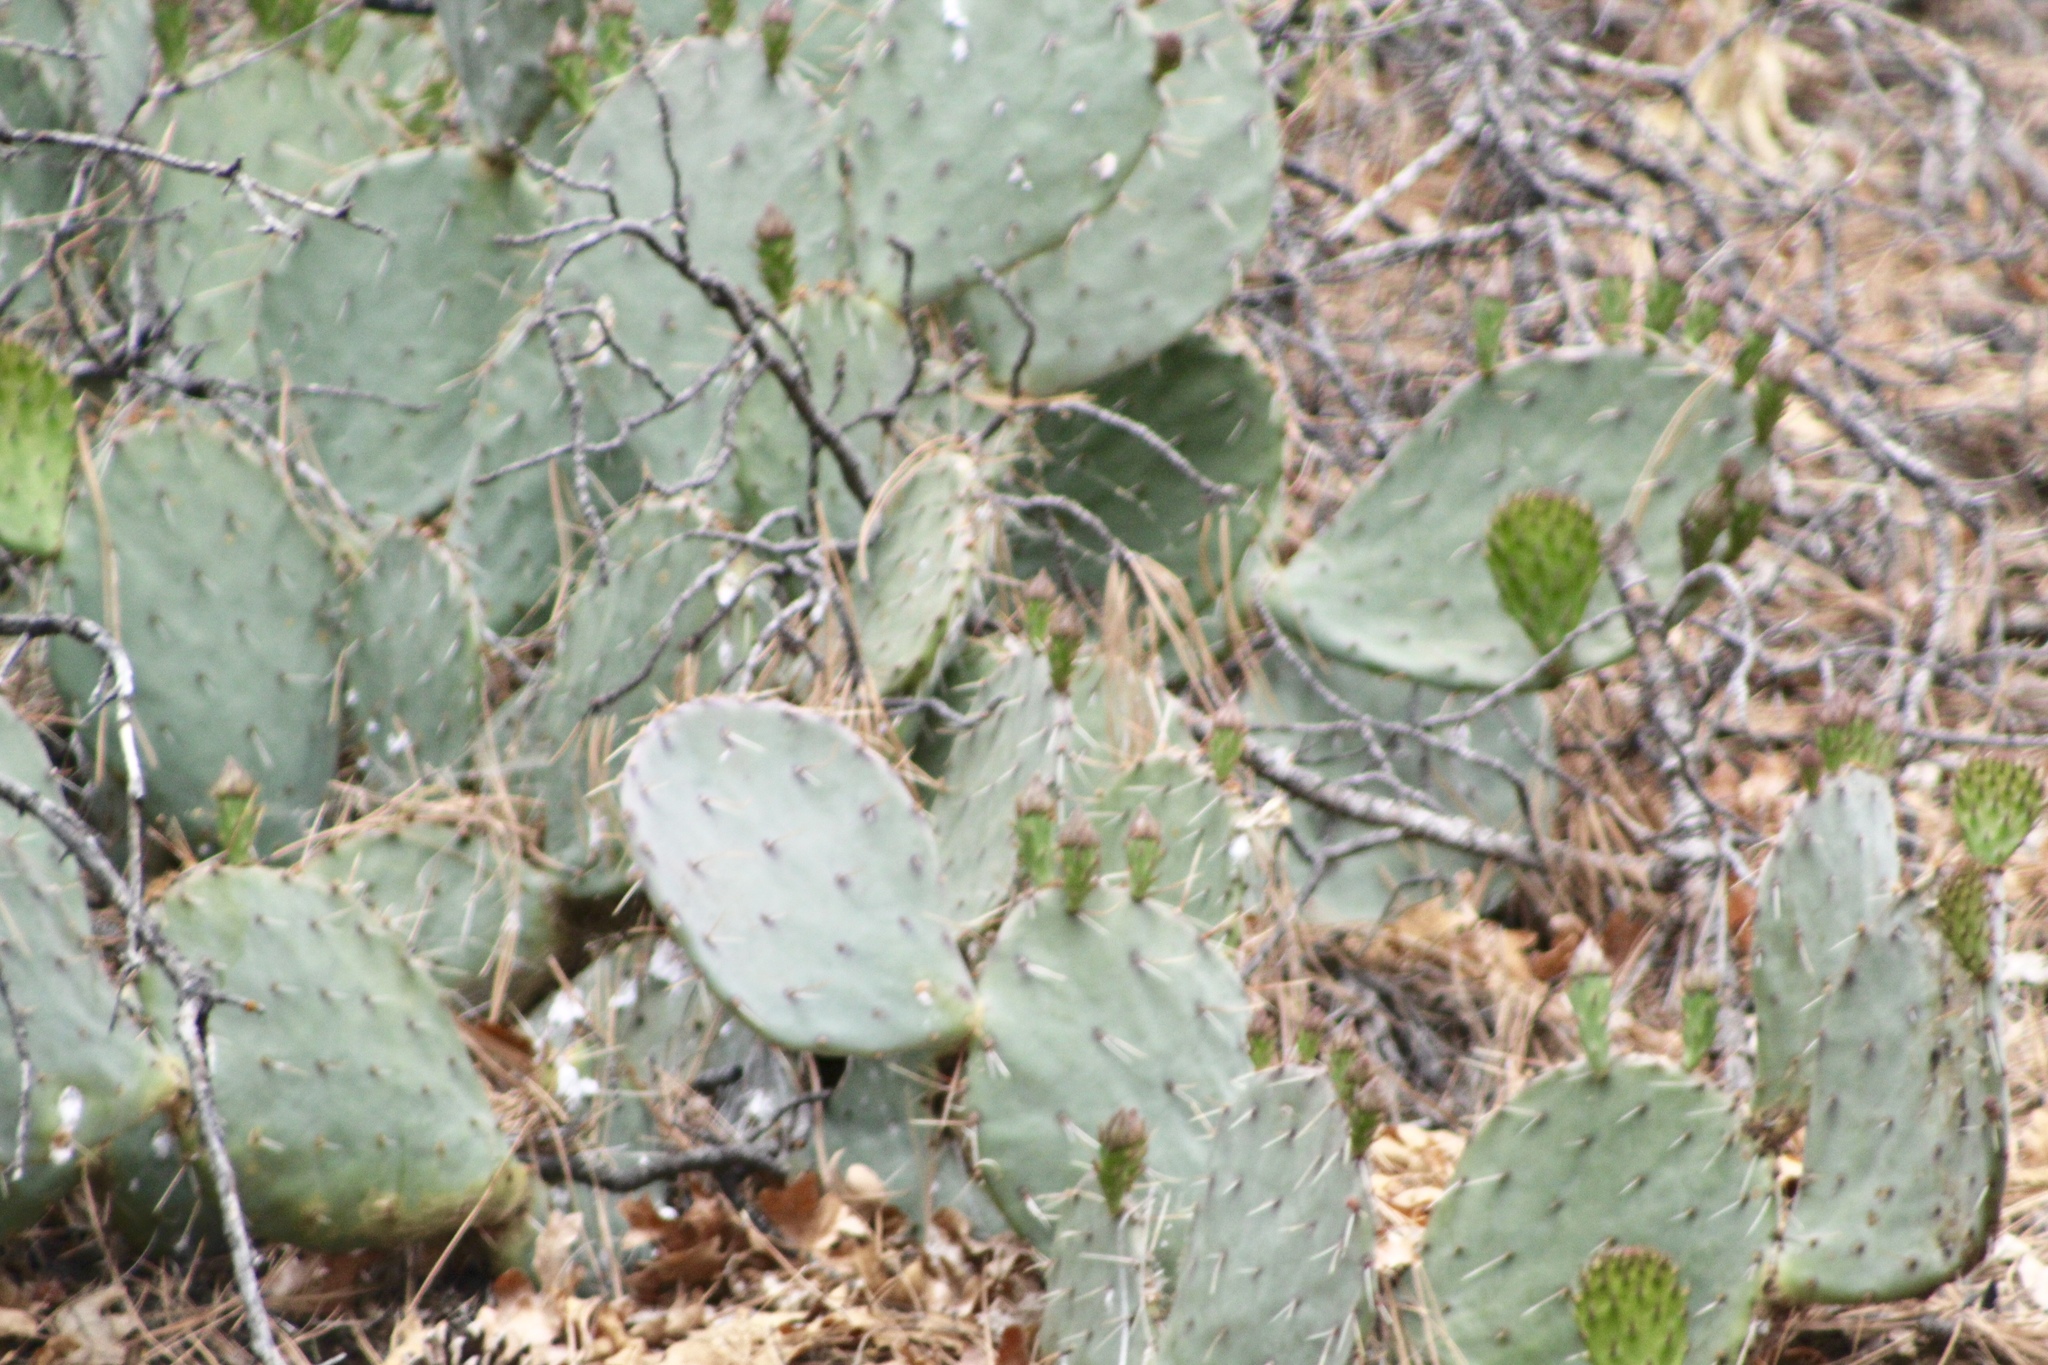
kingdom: Plantae
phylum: Tracheophyta
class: Magnoliopsida
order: Caryophyllales
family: Cactaceae
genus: Opuntia
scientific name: Opuntia engelmannii
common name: Cactus-apple
